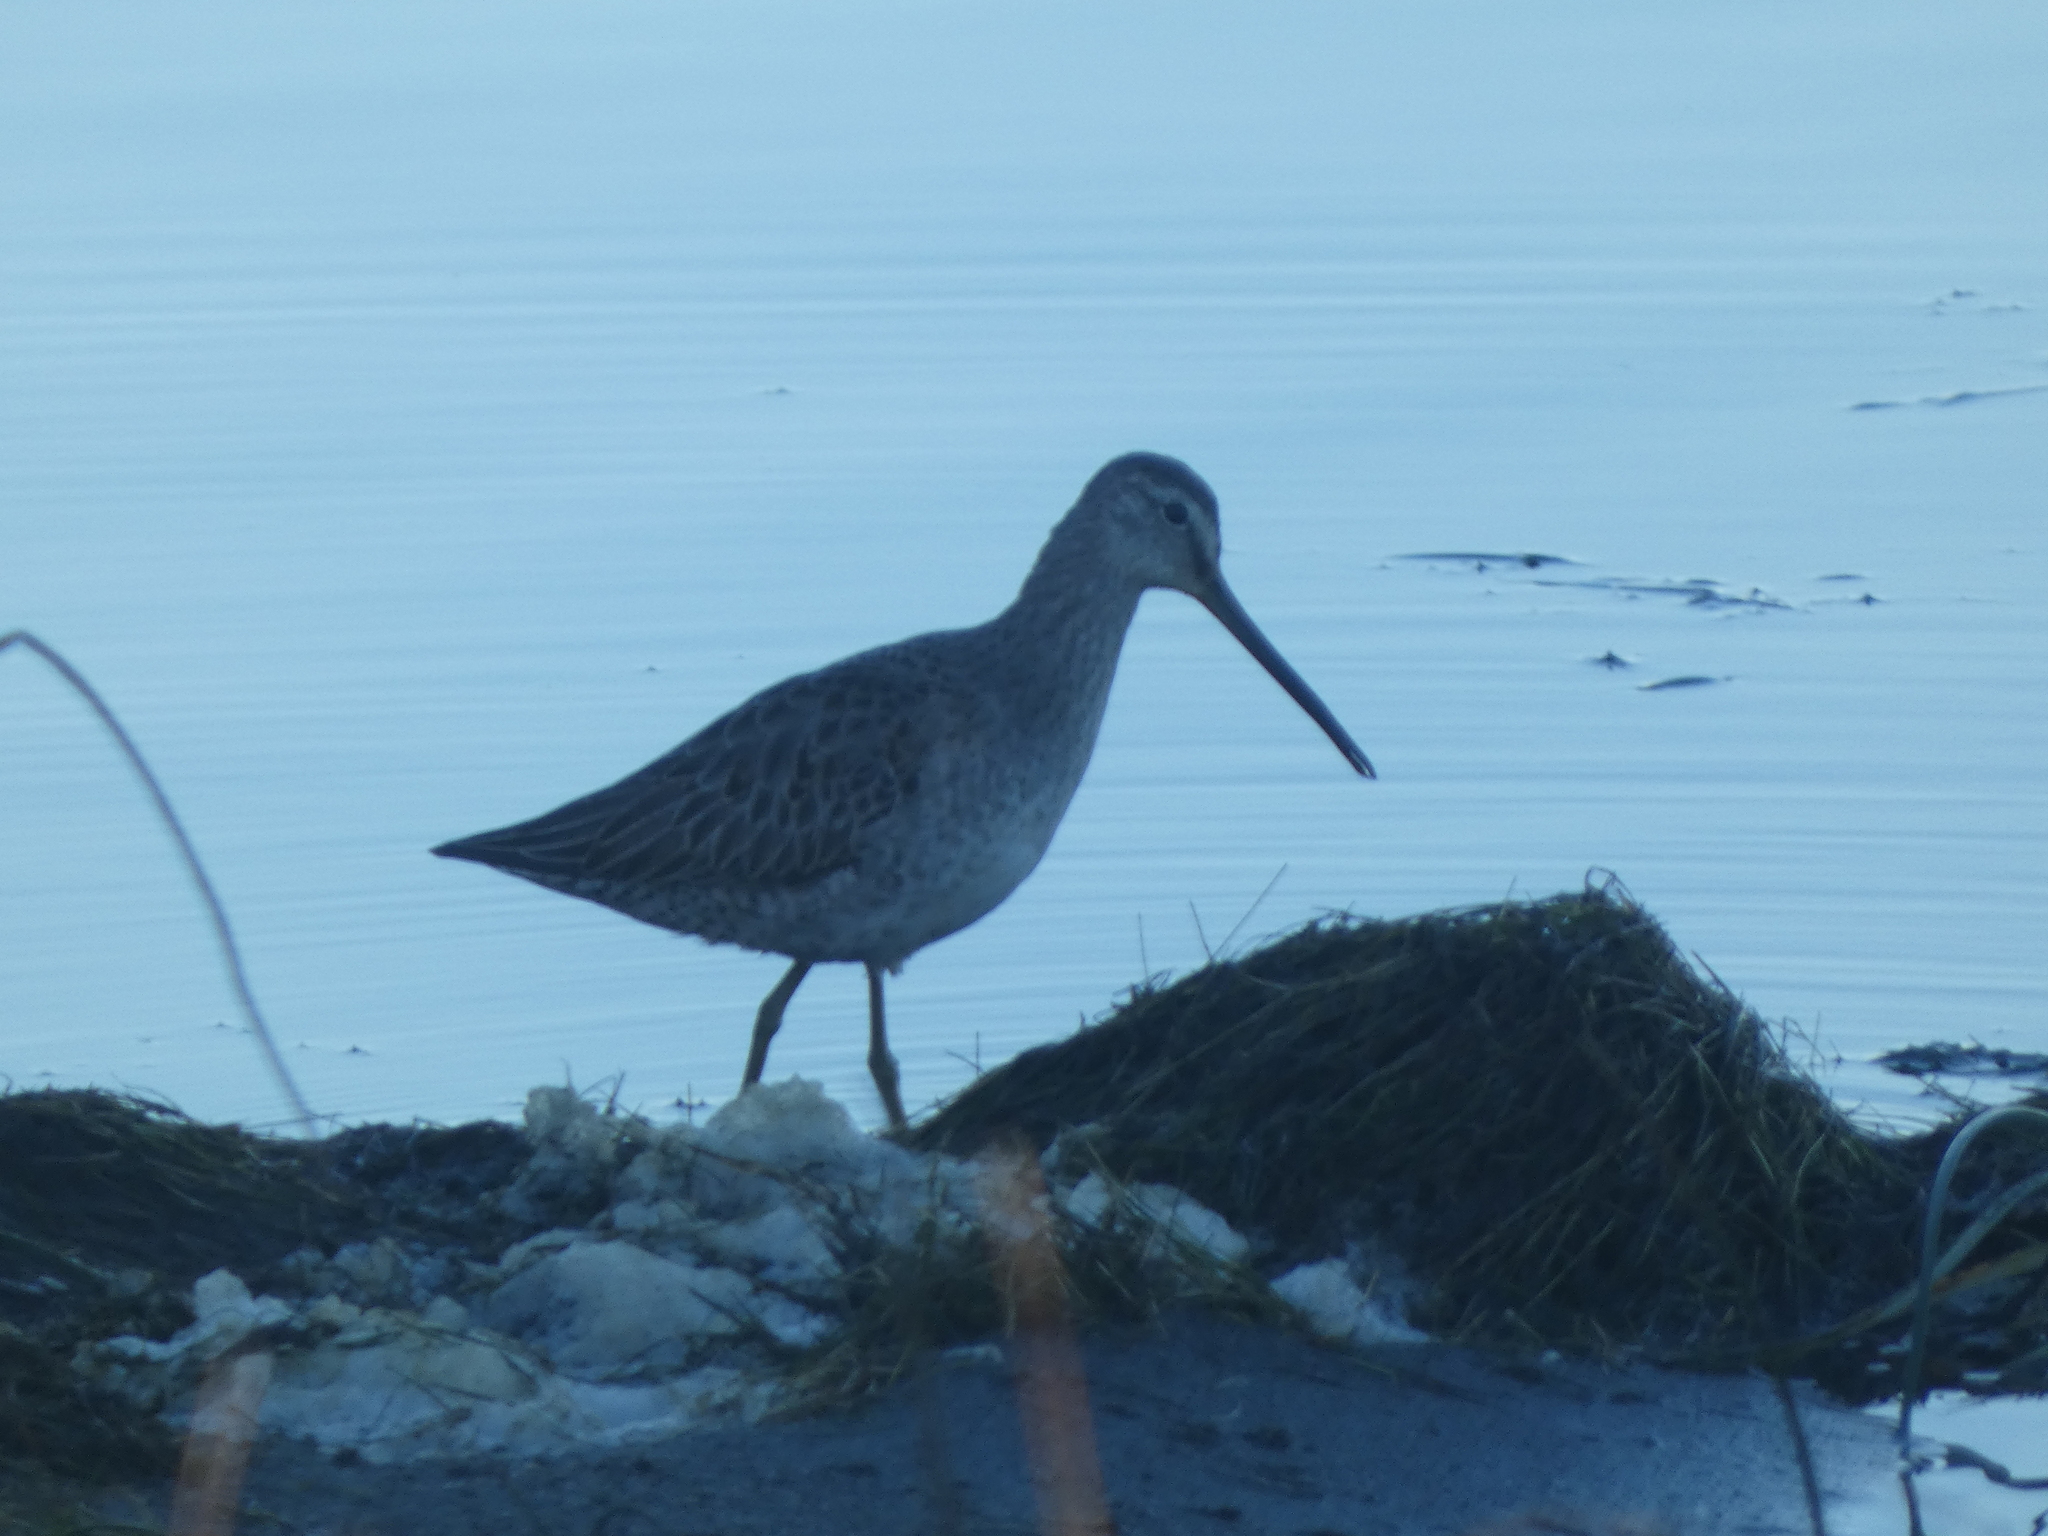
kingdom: Animalia
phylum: Chordata
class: Aves
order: Charadriiformes
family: Scolopacidae
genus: Limnodromus
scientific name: Limnodromus scolopaceus
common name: Long-billed dowitcher
